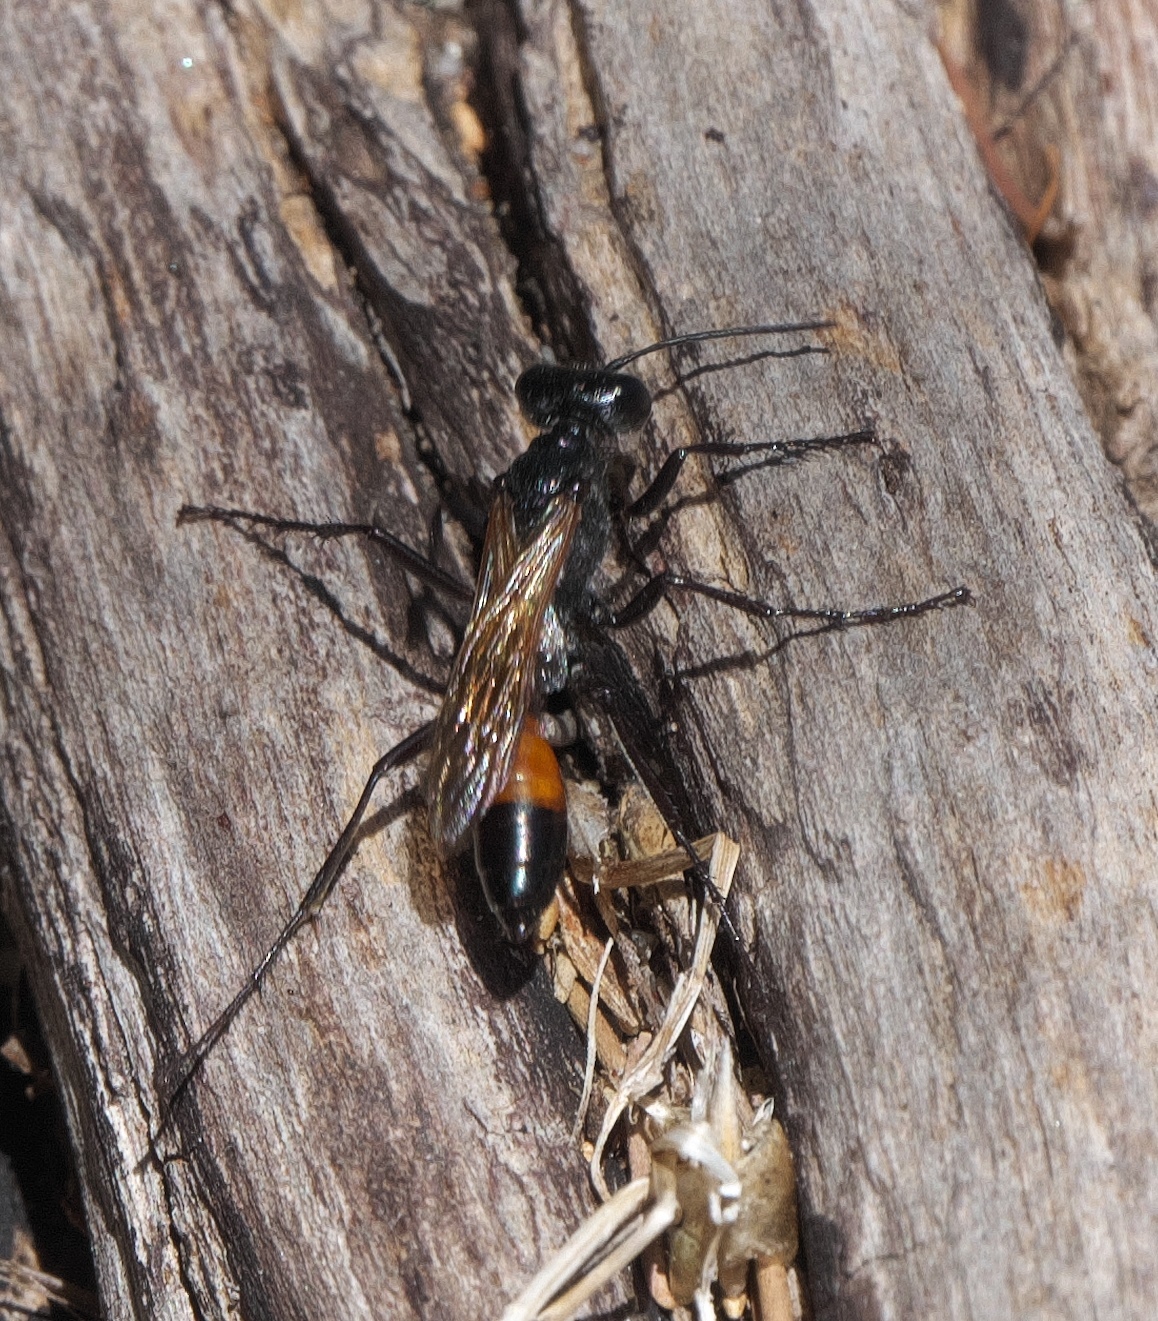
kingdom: Animalia
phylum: Arthropoda
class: Insecta
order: Hymenoptera
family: Sphecidae
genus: Podalonia
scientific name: Podalonia tydei
